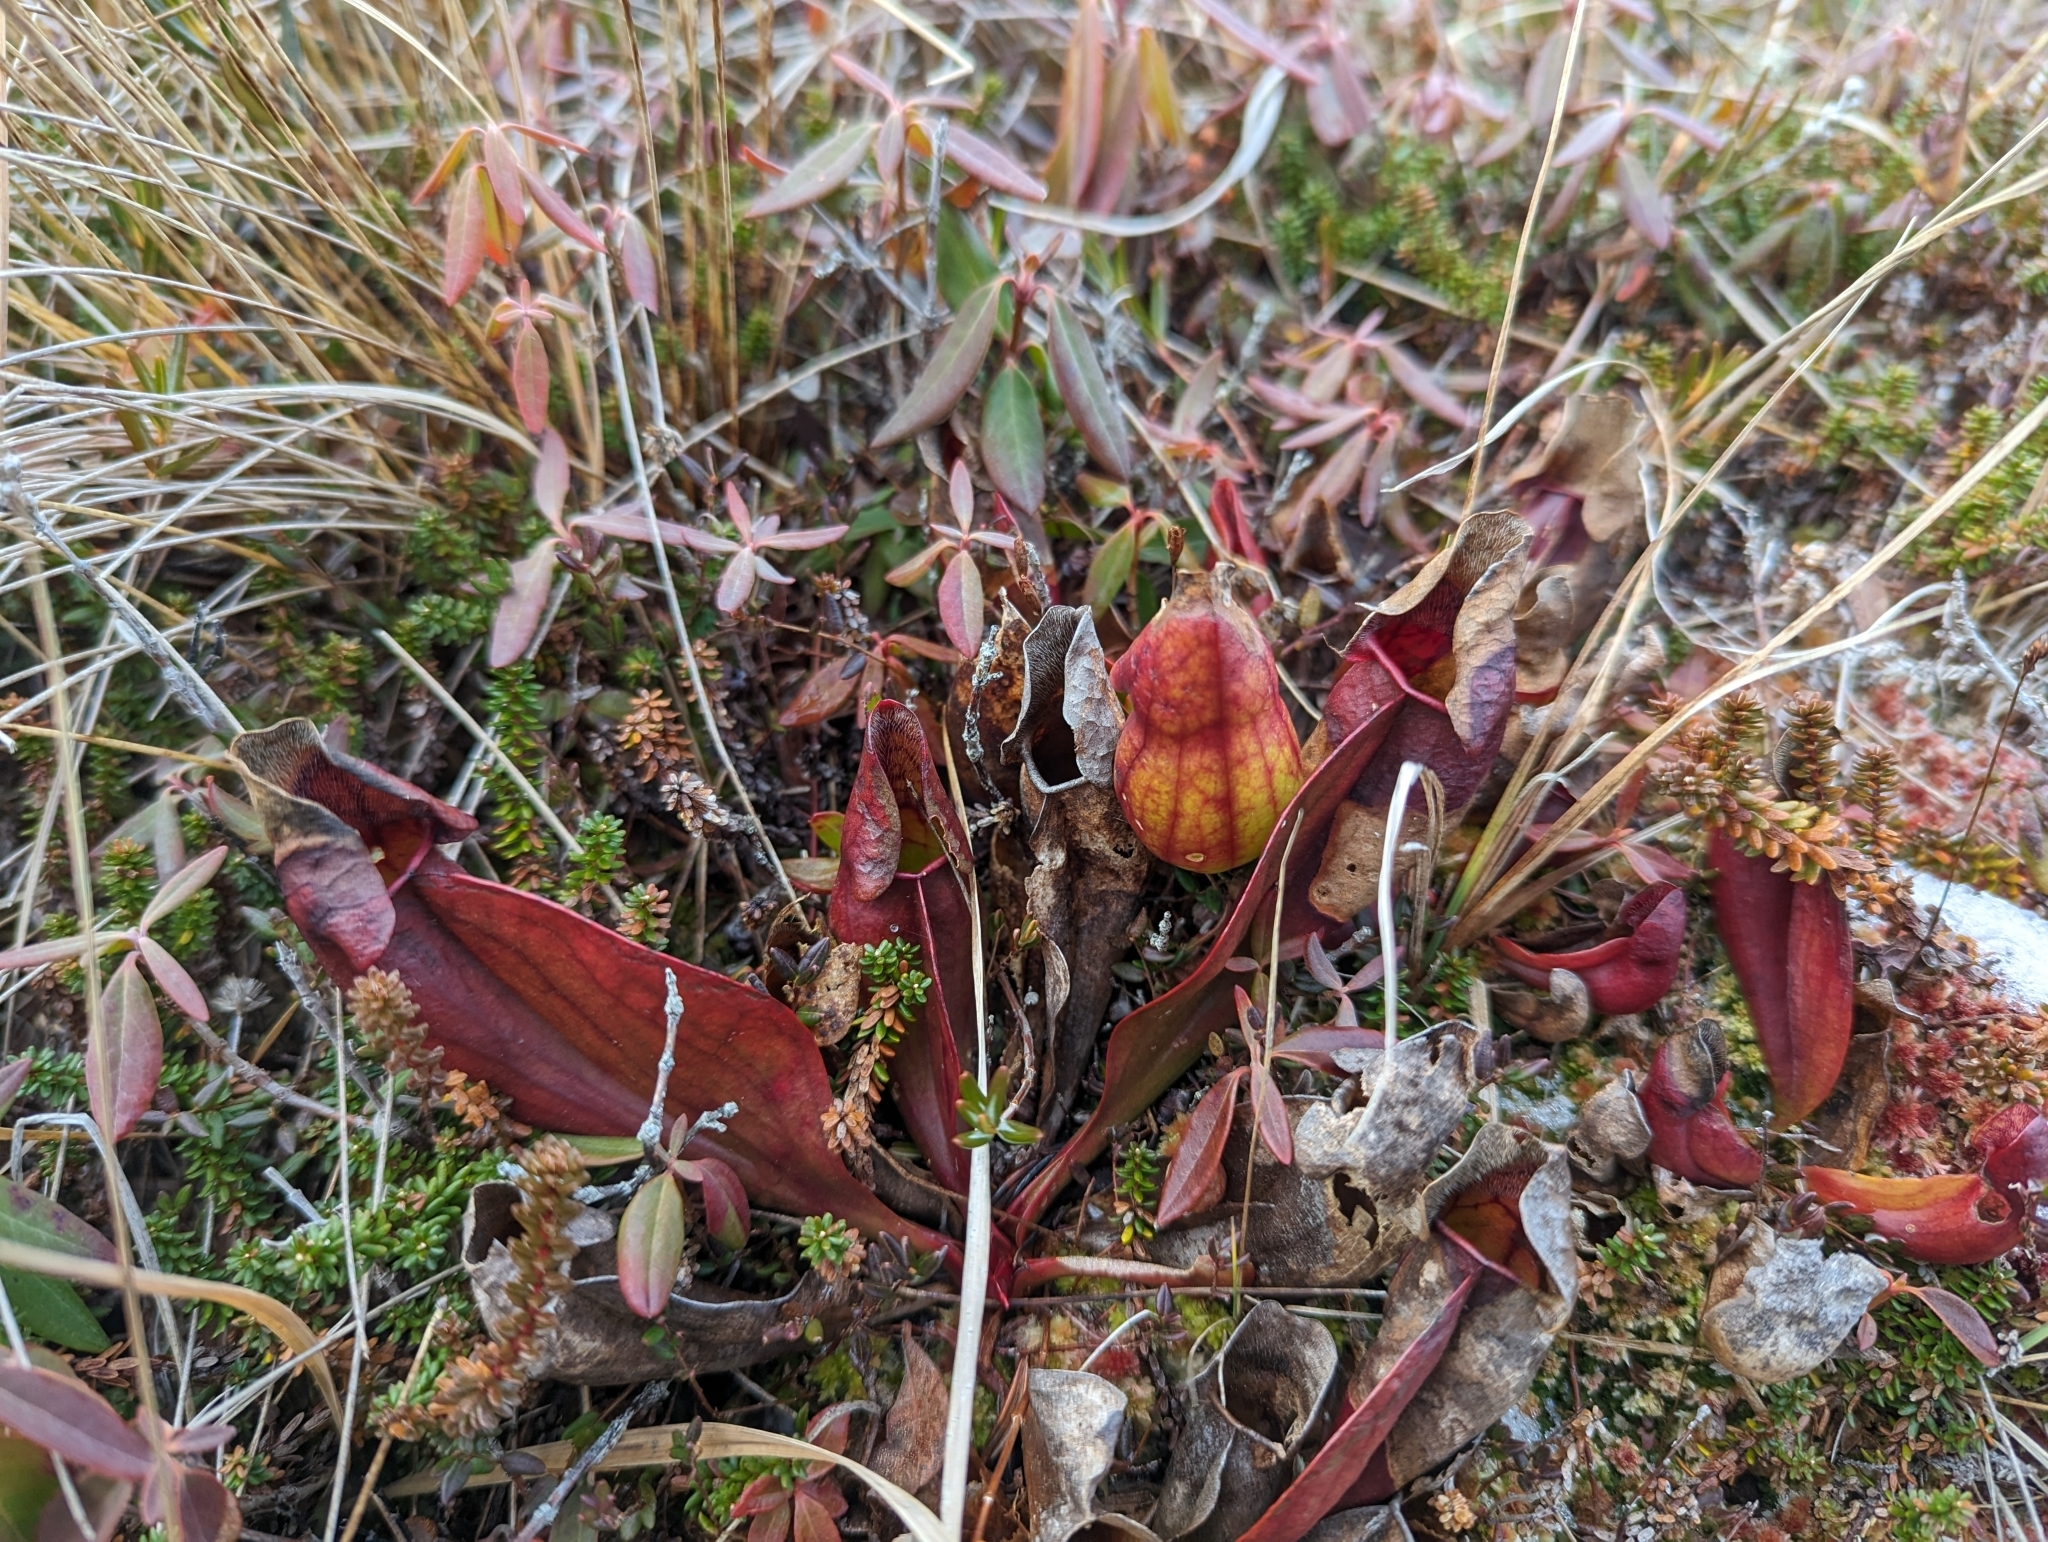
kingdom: Plantae
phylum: Tracheophyta
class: Magnoliopsida
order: Ericales
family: Sarraceniaceae
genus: Sarracenia
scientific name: Sarracenia purpurea
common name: Pitcherplant
